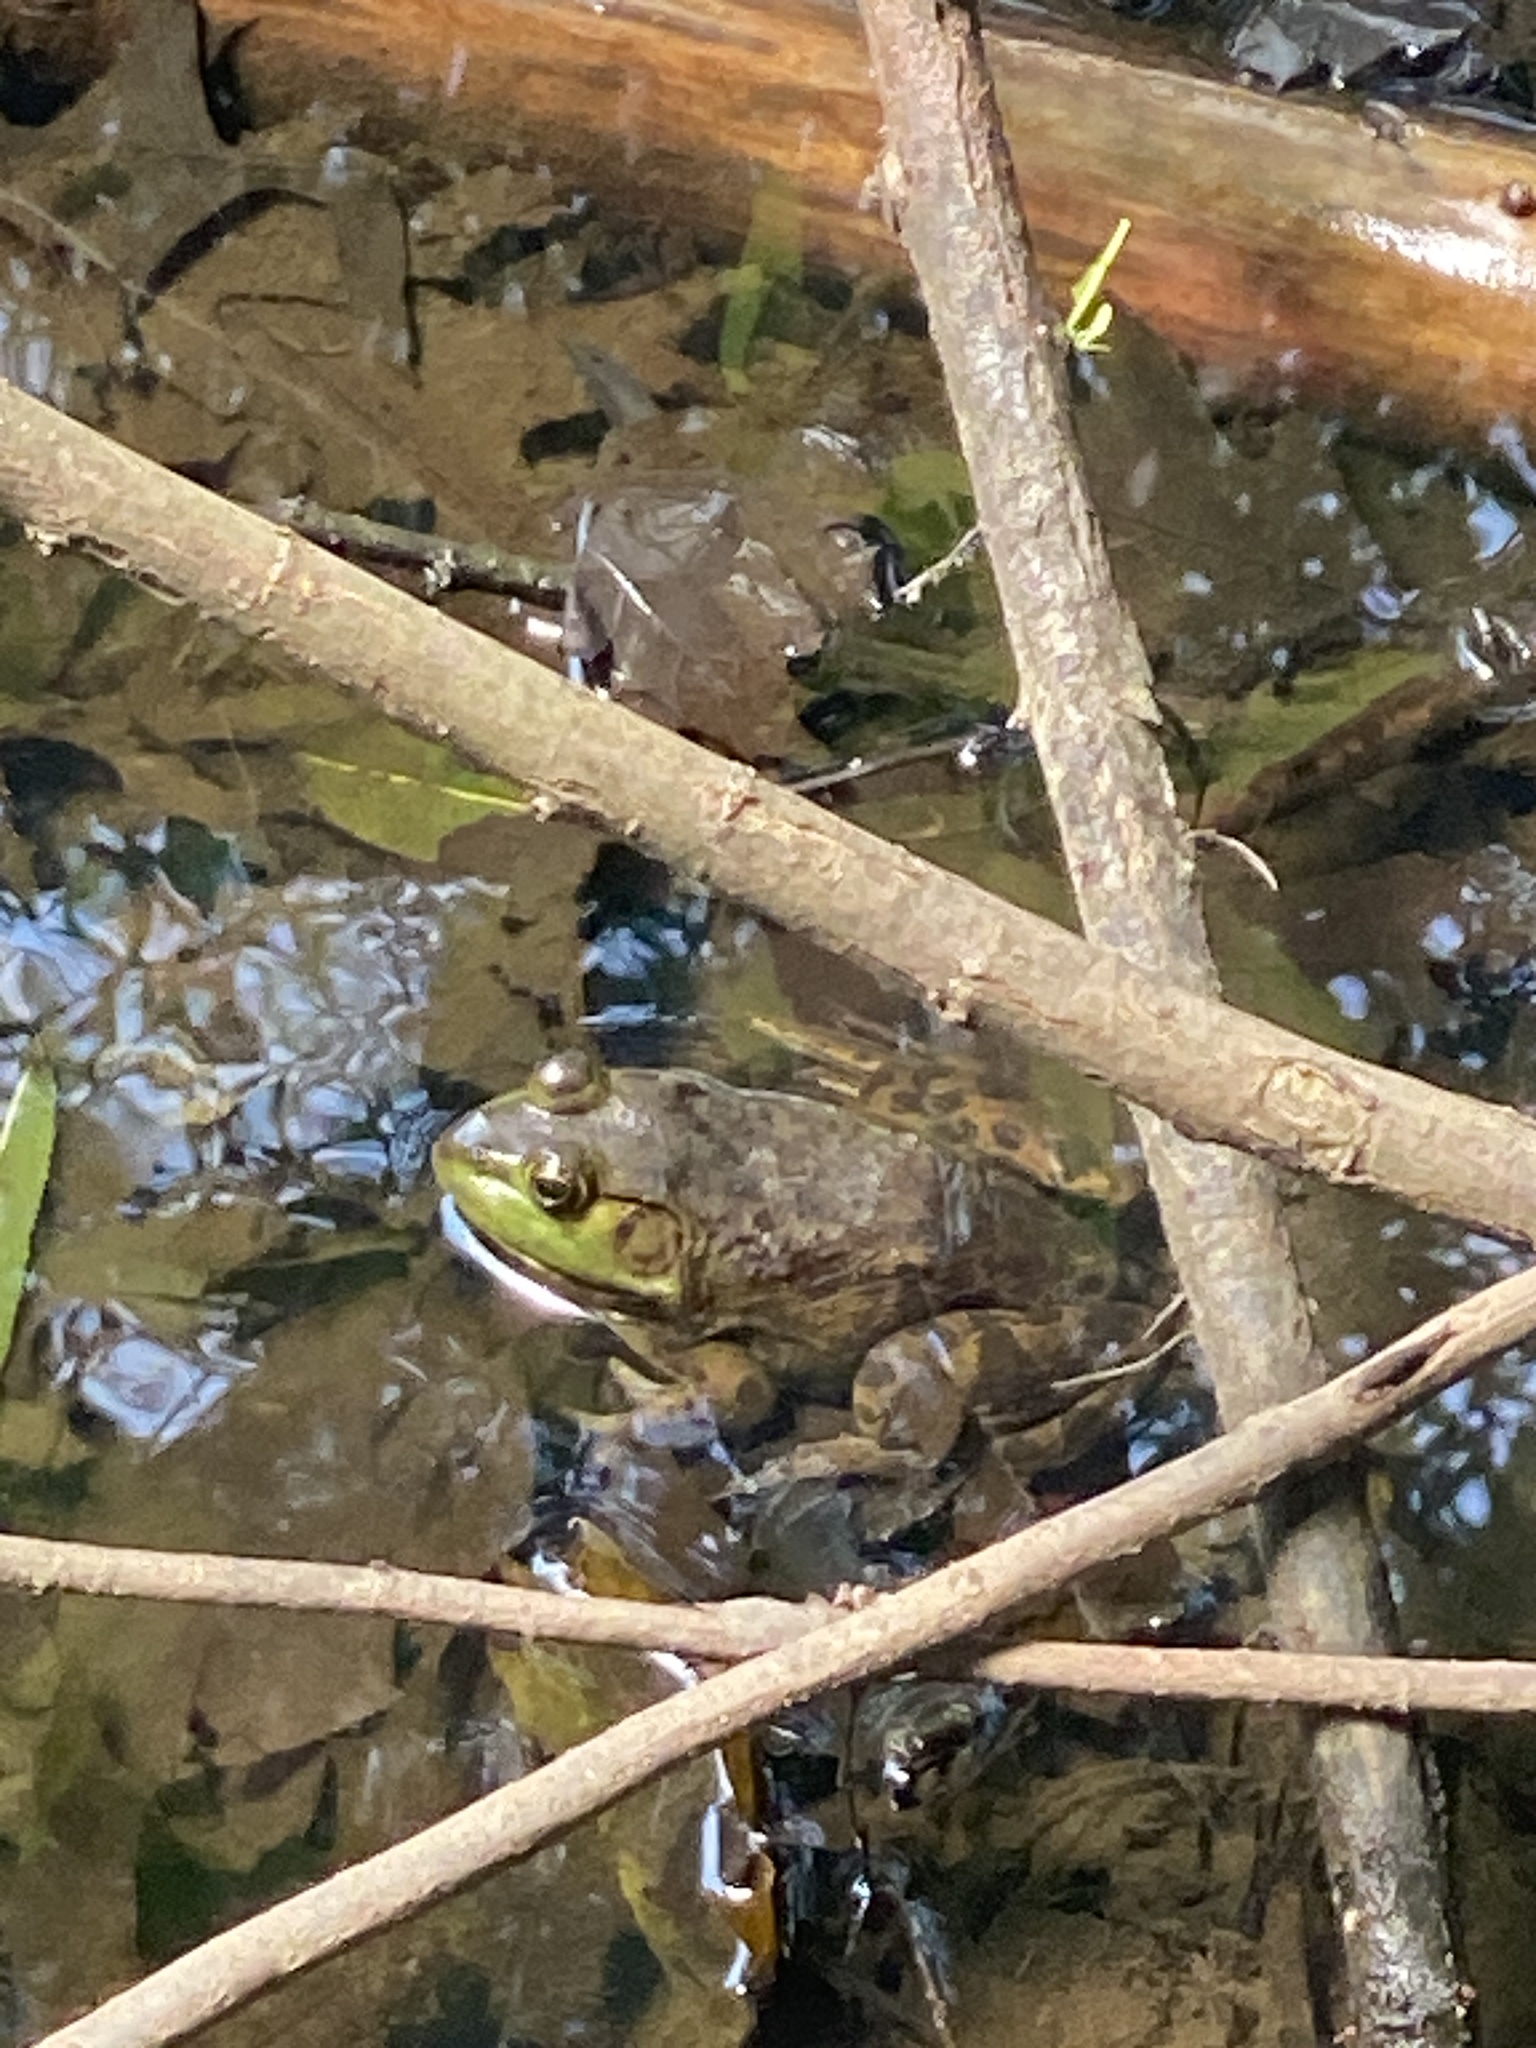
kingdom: Animalia
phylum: Chordata
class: Amphibia
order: Anura
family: Ranidae
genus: Lithobates
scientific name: Lithobates catesbeianus
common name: American bullfrog
